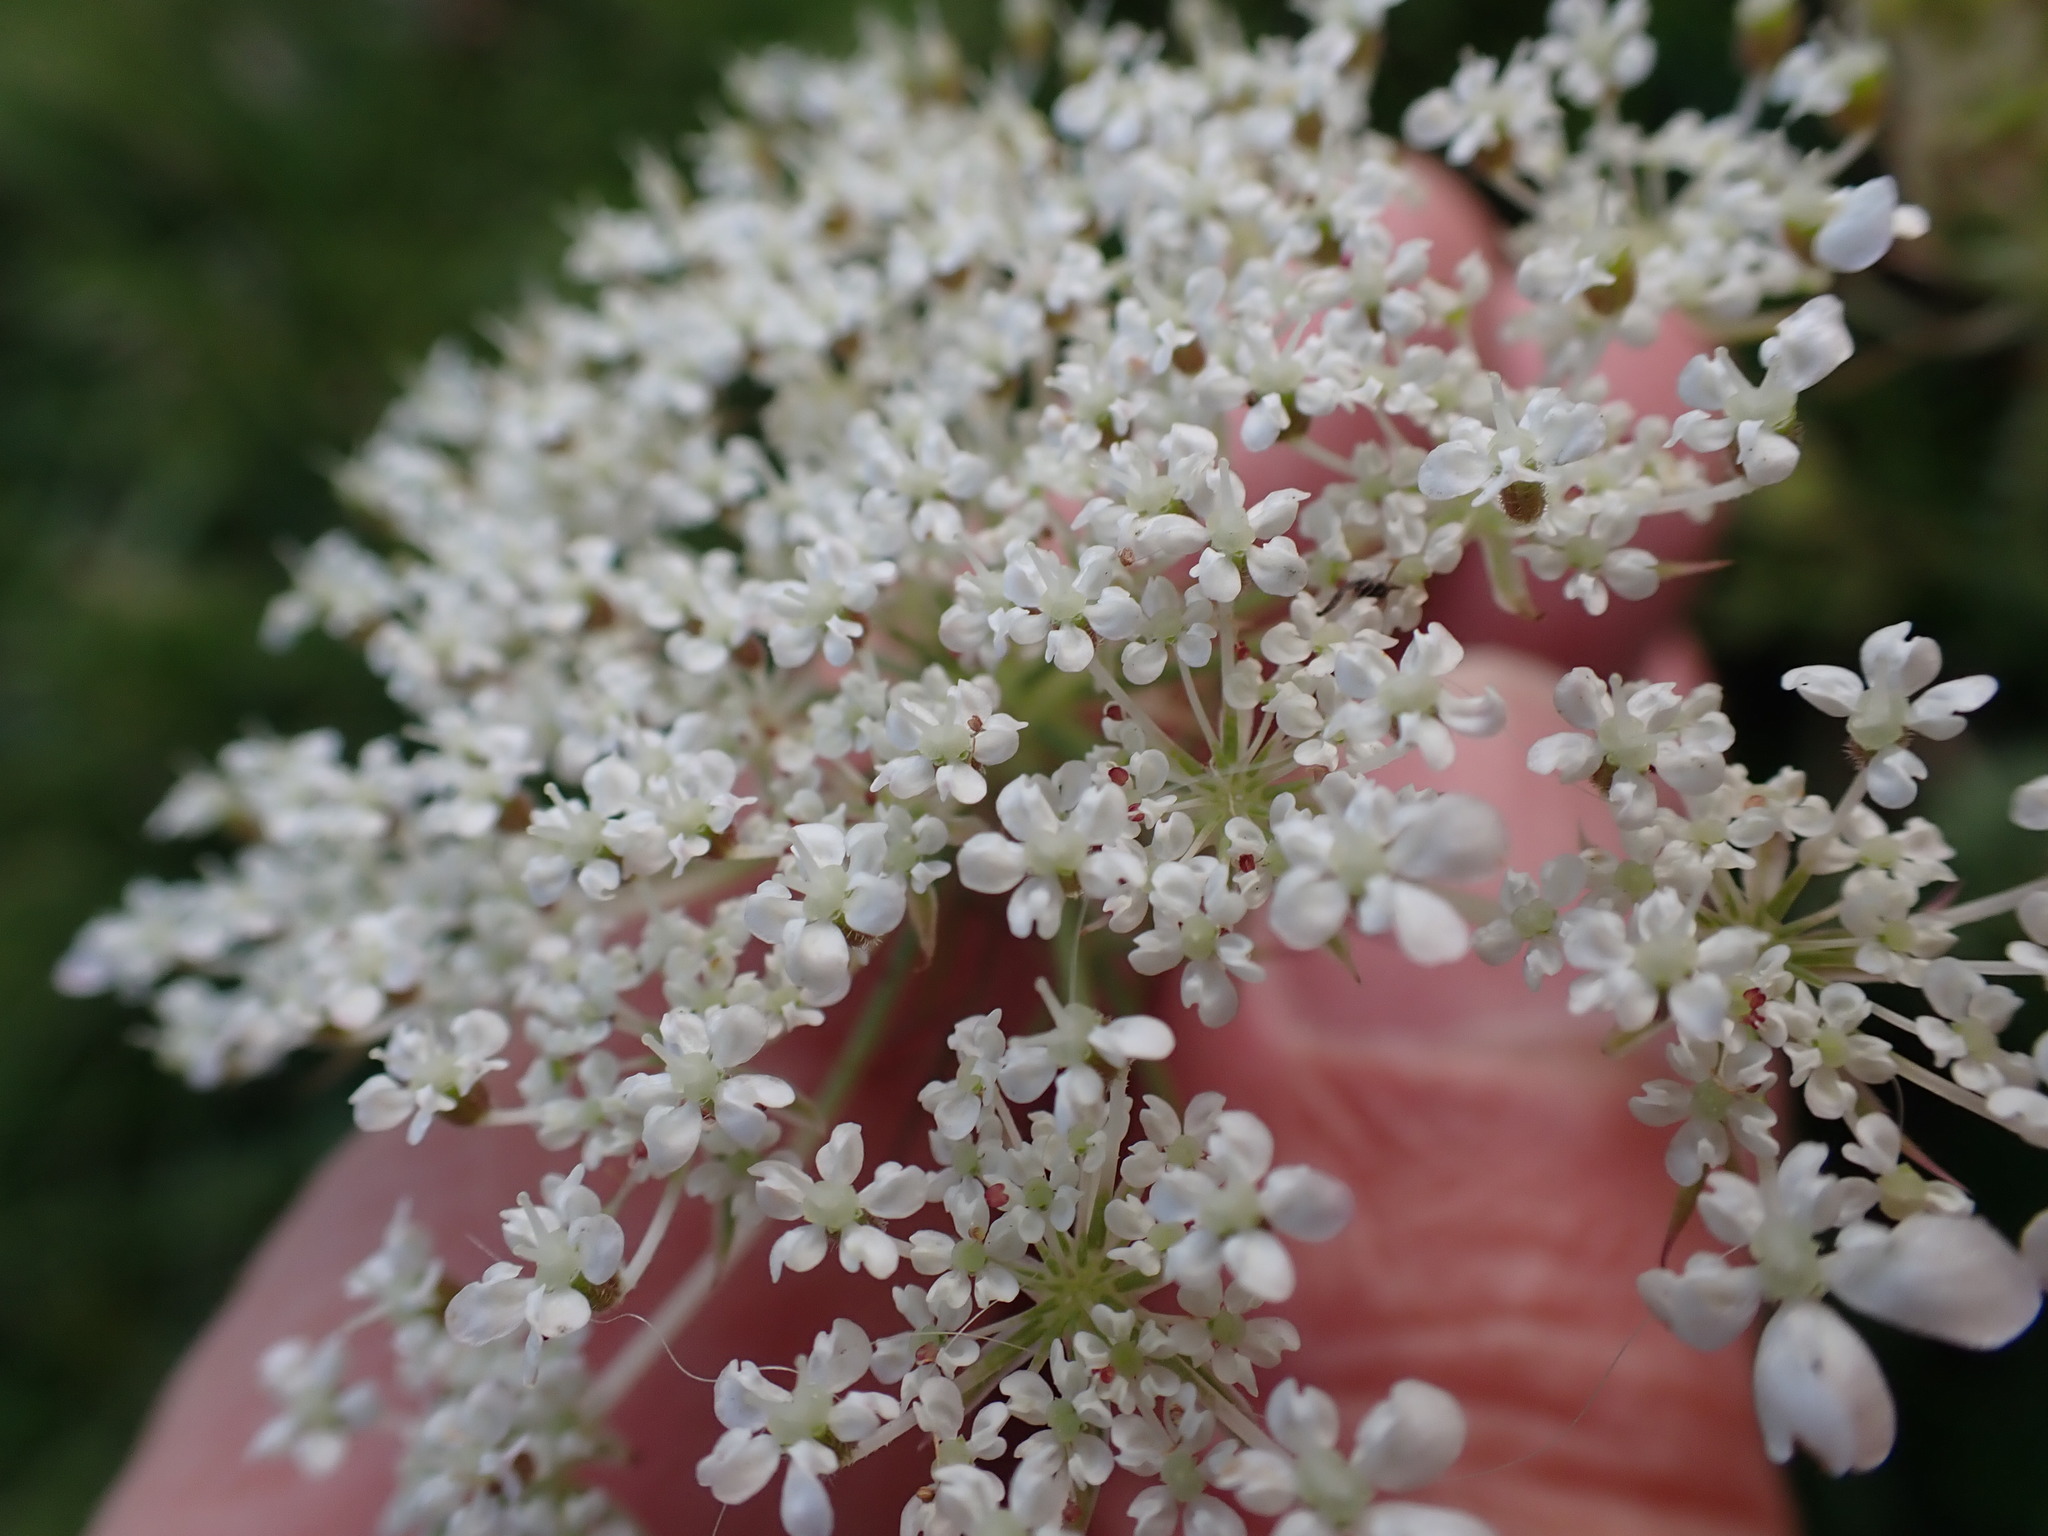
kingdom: Plantae
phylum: Tracheophyta
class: Magnoliopsida
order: Apiales
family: Apiaceae
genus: Daucus
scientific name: Daucus carota
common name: Wild carrot
